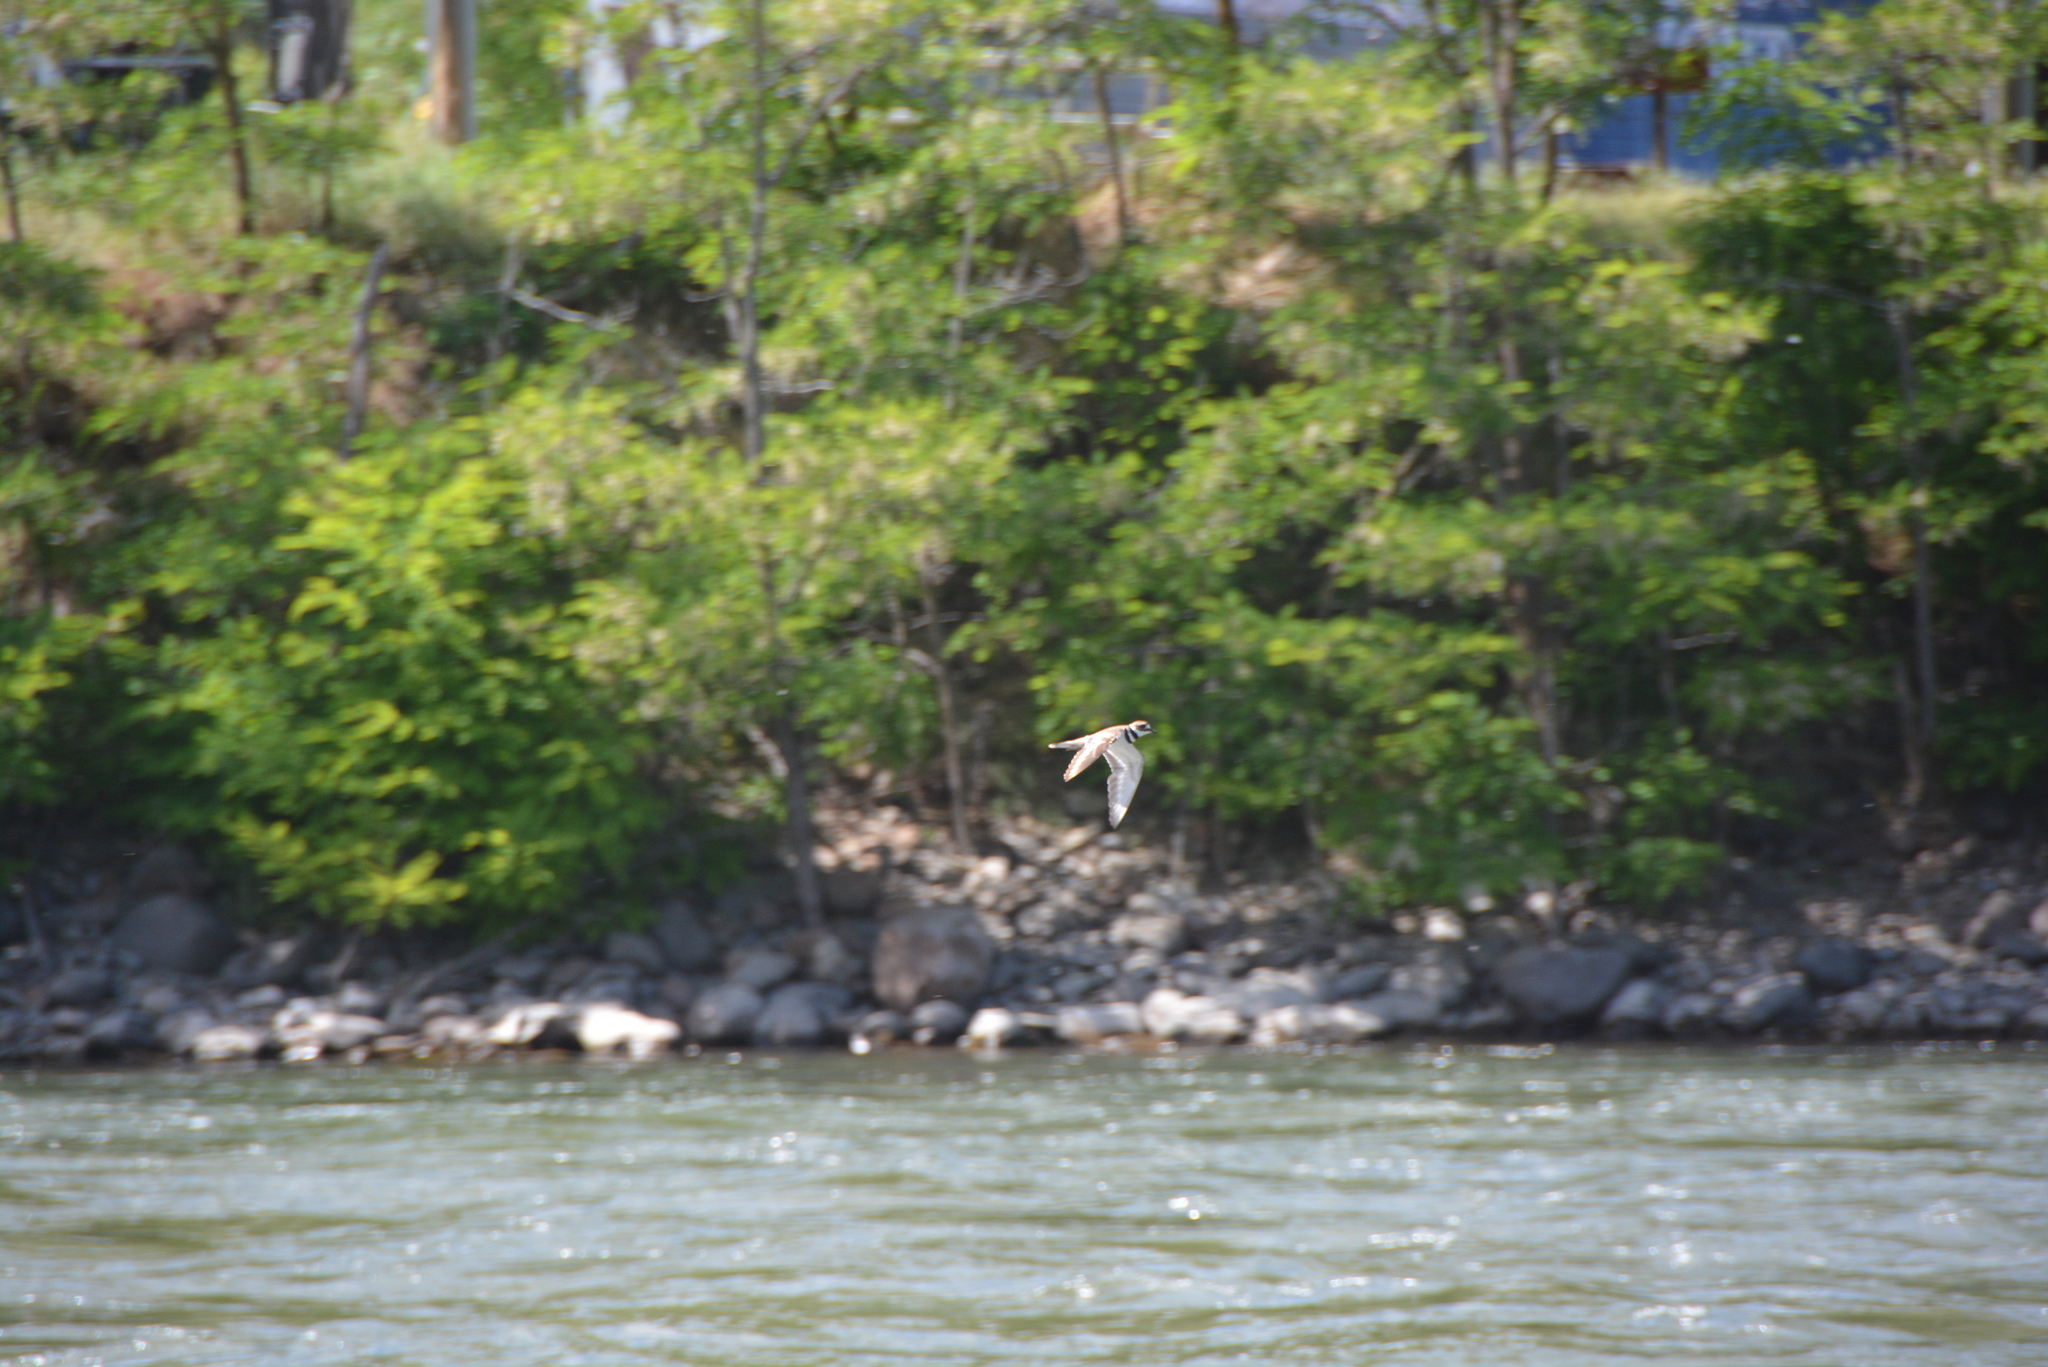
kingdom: Animalia
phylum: Chordata
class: Aves
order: Charadriiformes
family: Charadriidae
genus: Charadrius
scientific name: Charadrius vociferus
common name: Killdeer
